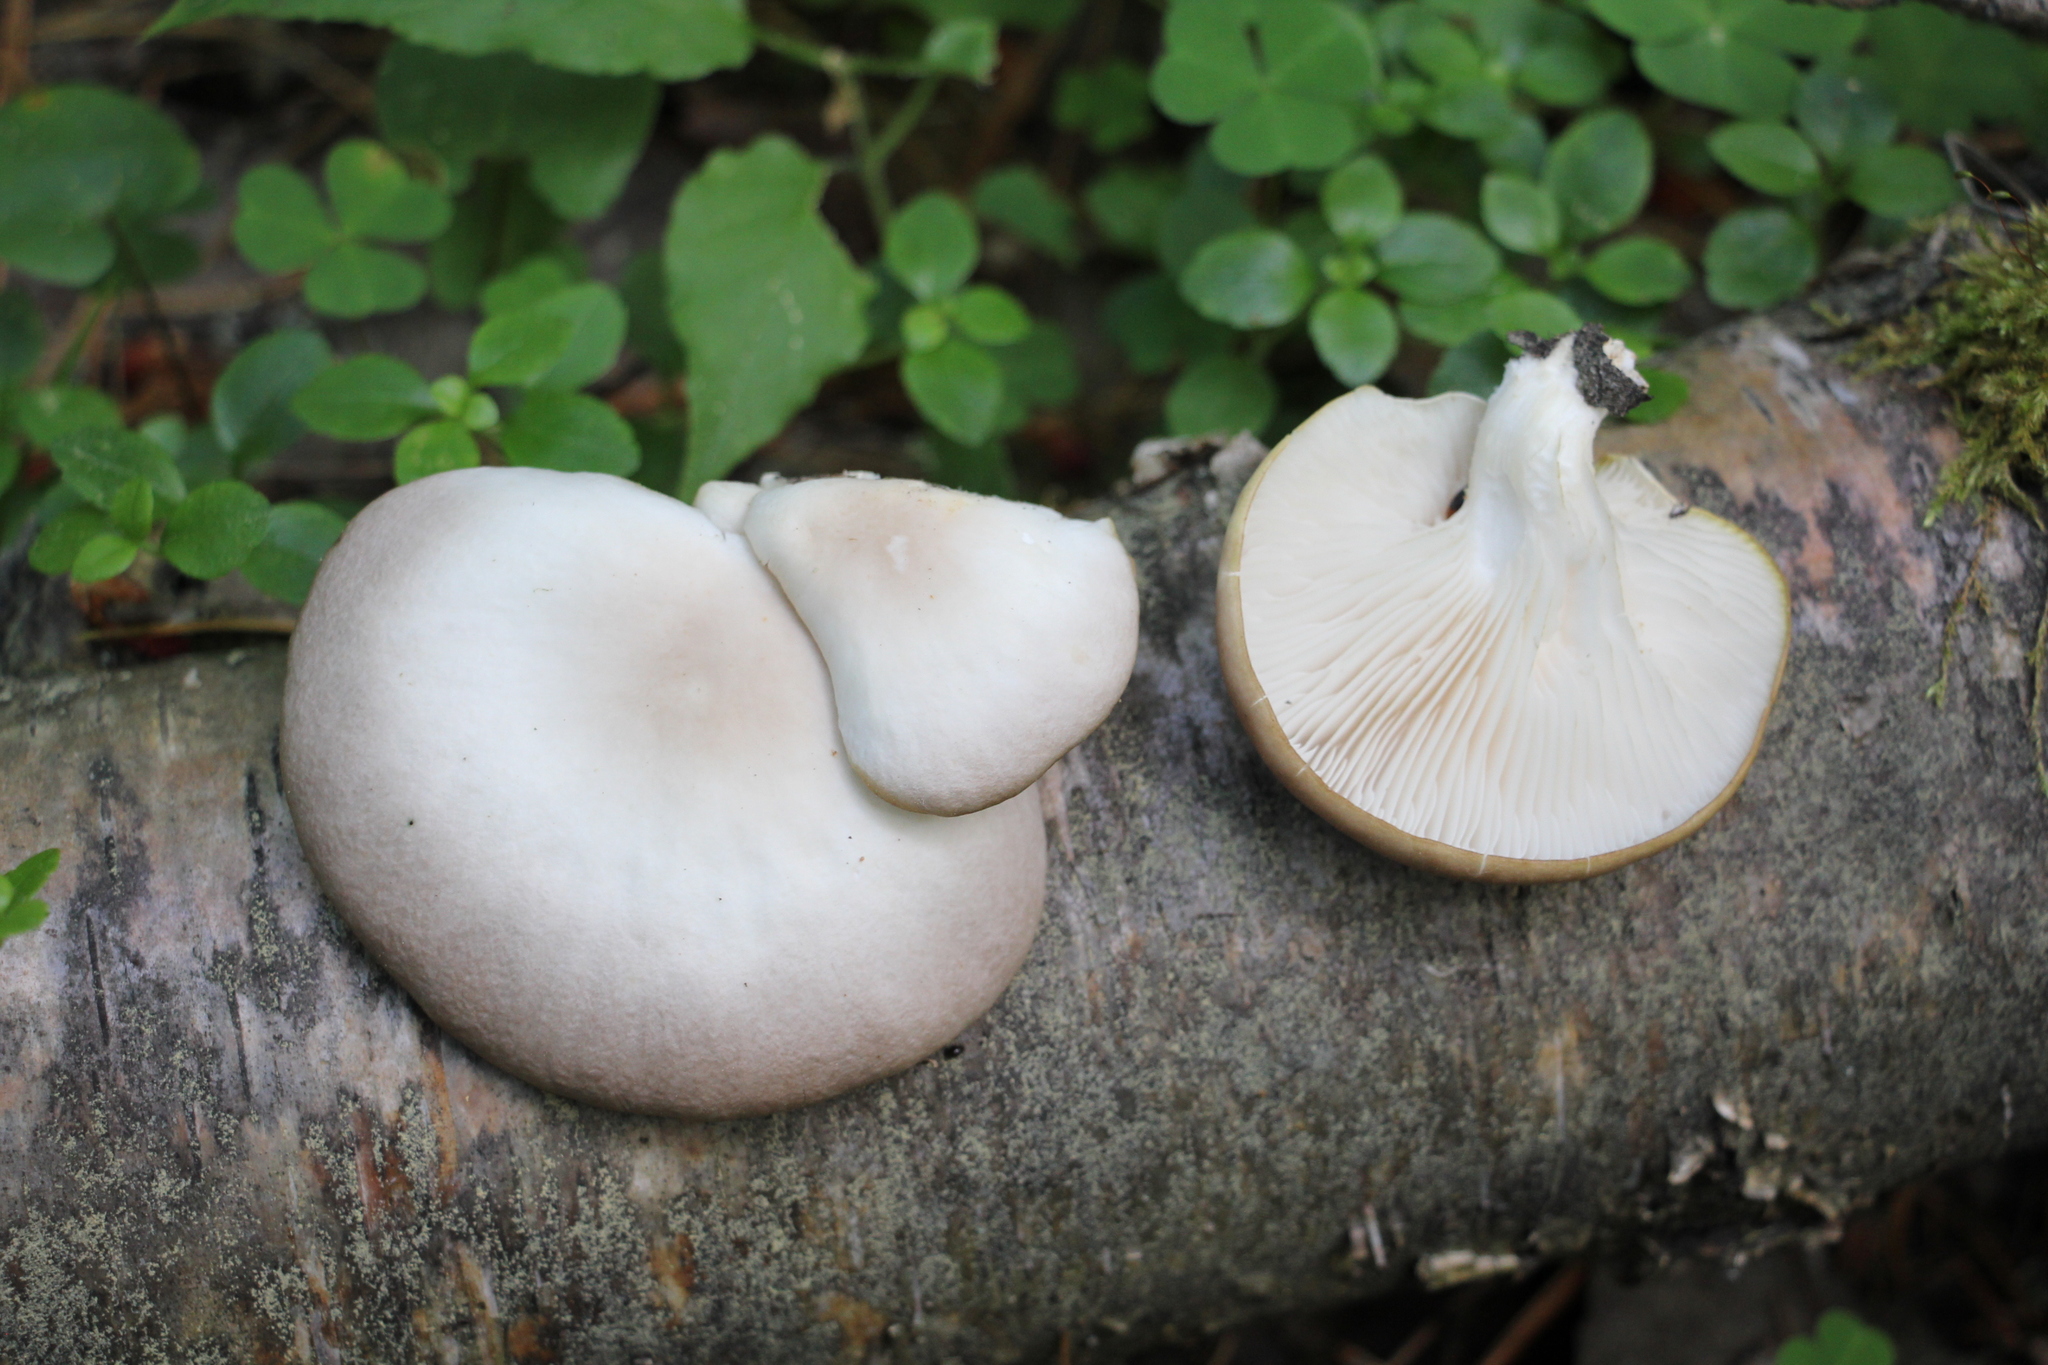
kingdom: Fungi
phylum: Basidiomycota
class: Agaricomycetes
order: Agaricales
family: Pleurotaceae
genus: Pleurotus
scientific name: Pleurotus pulmonarius
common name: Pale oyster
